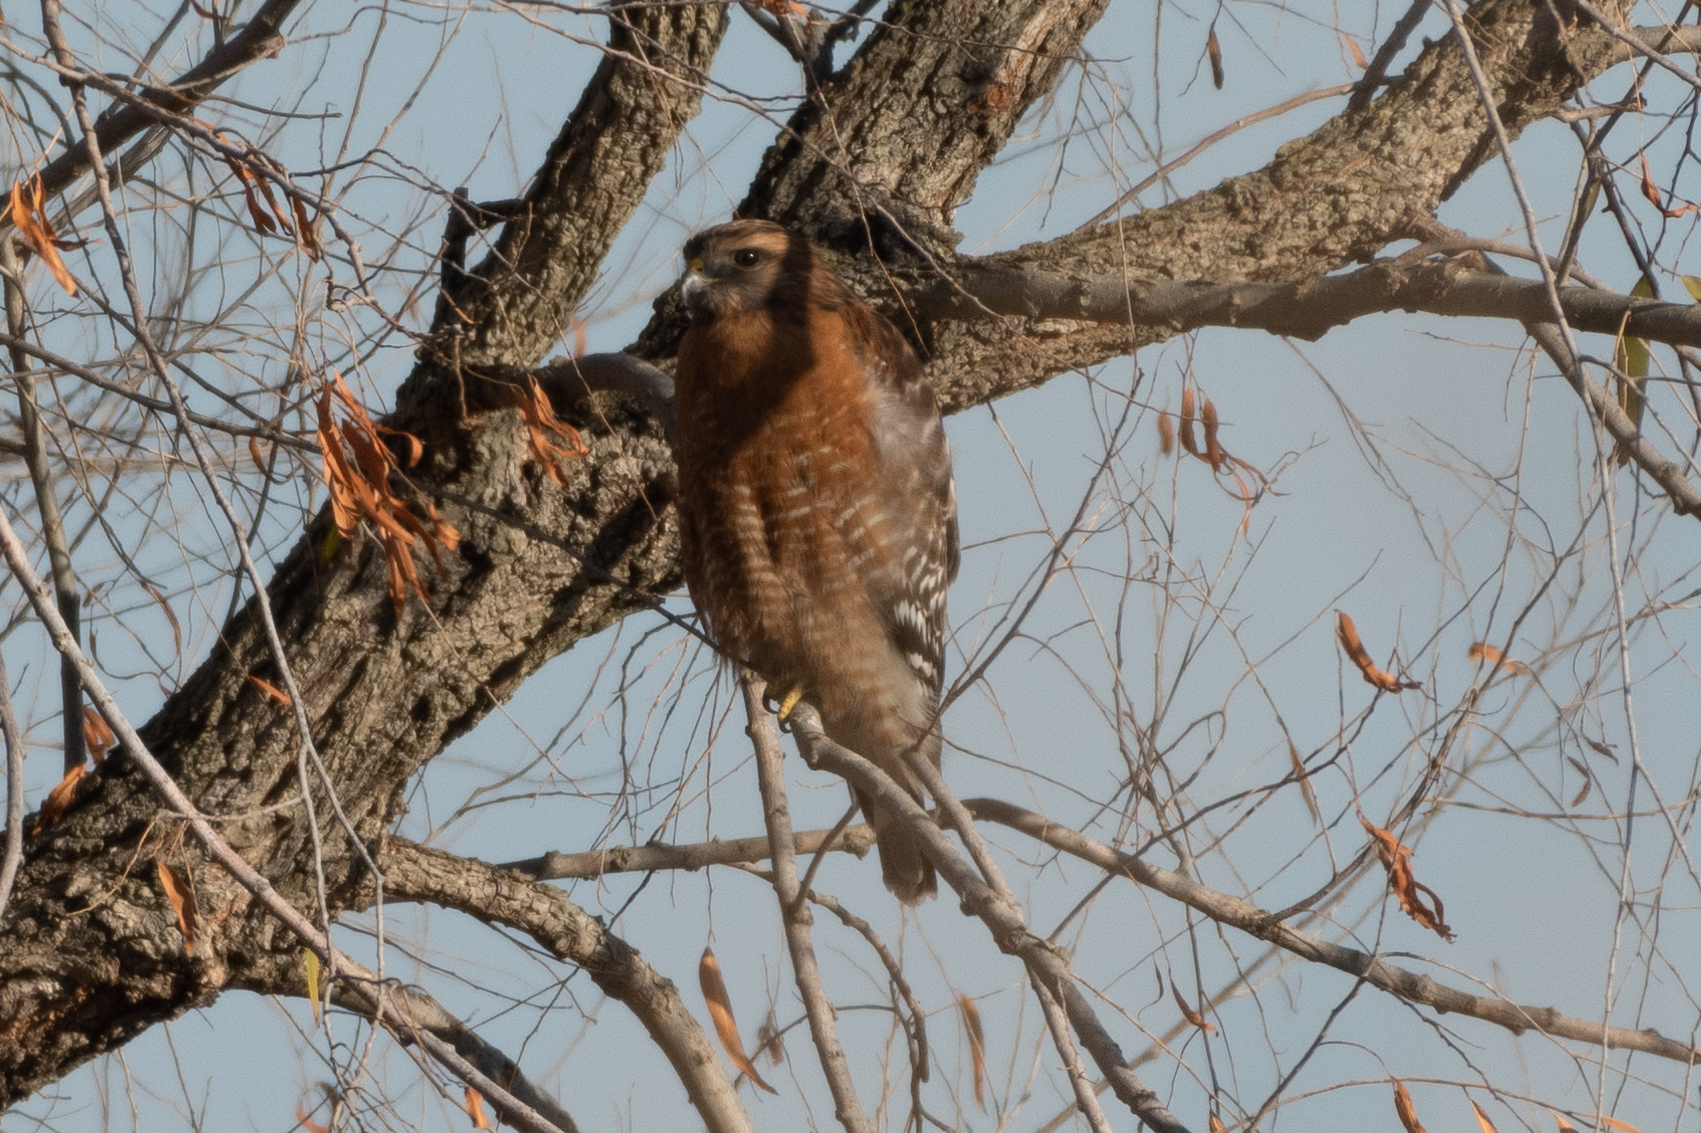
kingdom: Animalia
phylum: Chordata
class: Aves
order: Accipitriformes
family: Accipitridae
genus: Buteo
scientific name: Buteo lineatus
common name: Red-shouldered hawk
